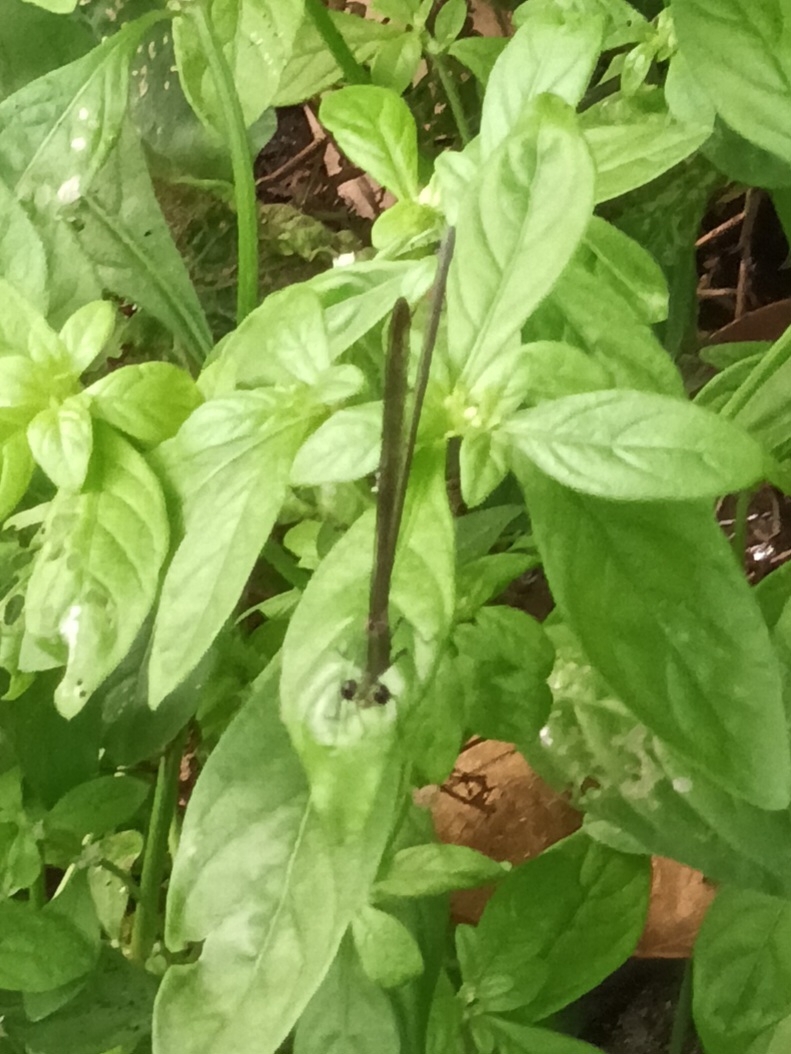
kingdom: Animalia
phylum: Arthropoda
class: Insecta
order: Odonata
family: Calopterygidae
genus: Vestalis
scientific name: Vestalis apicalis
